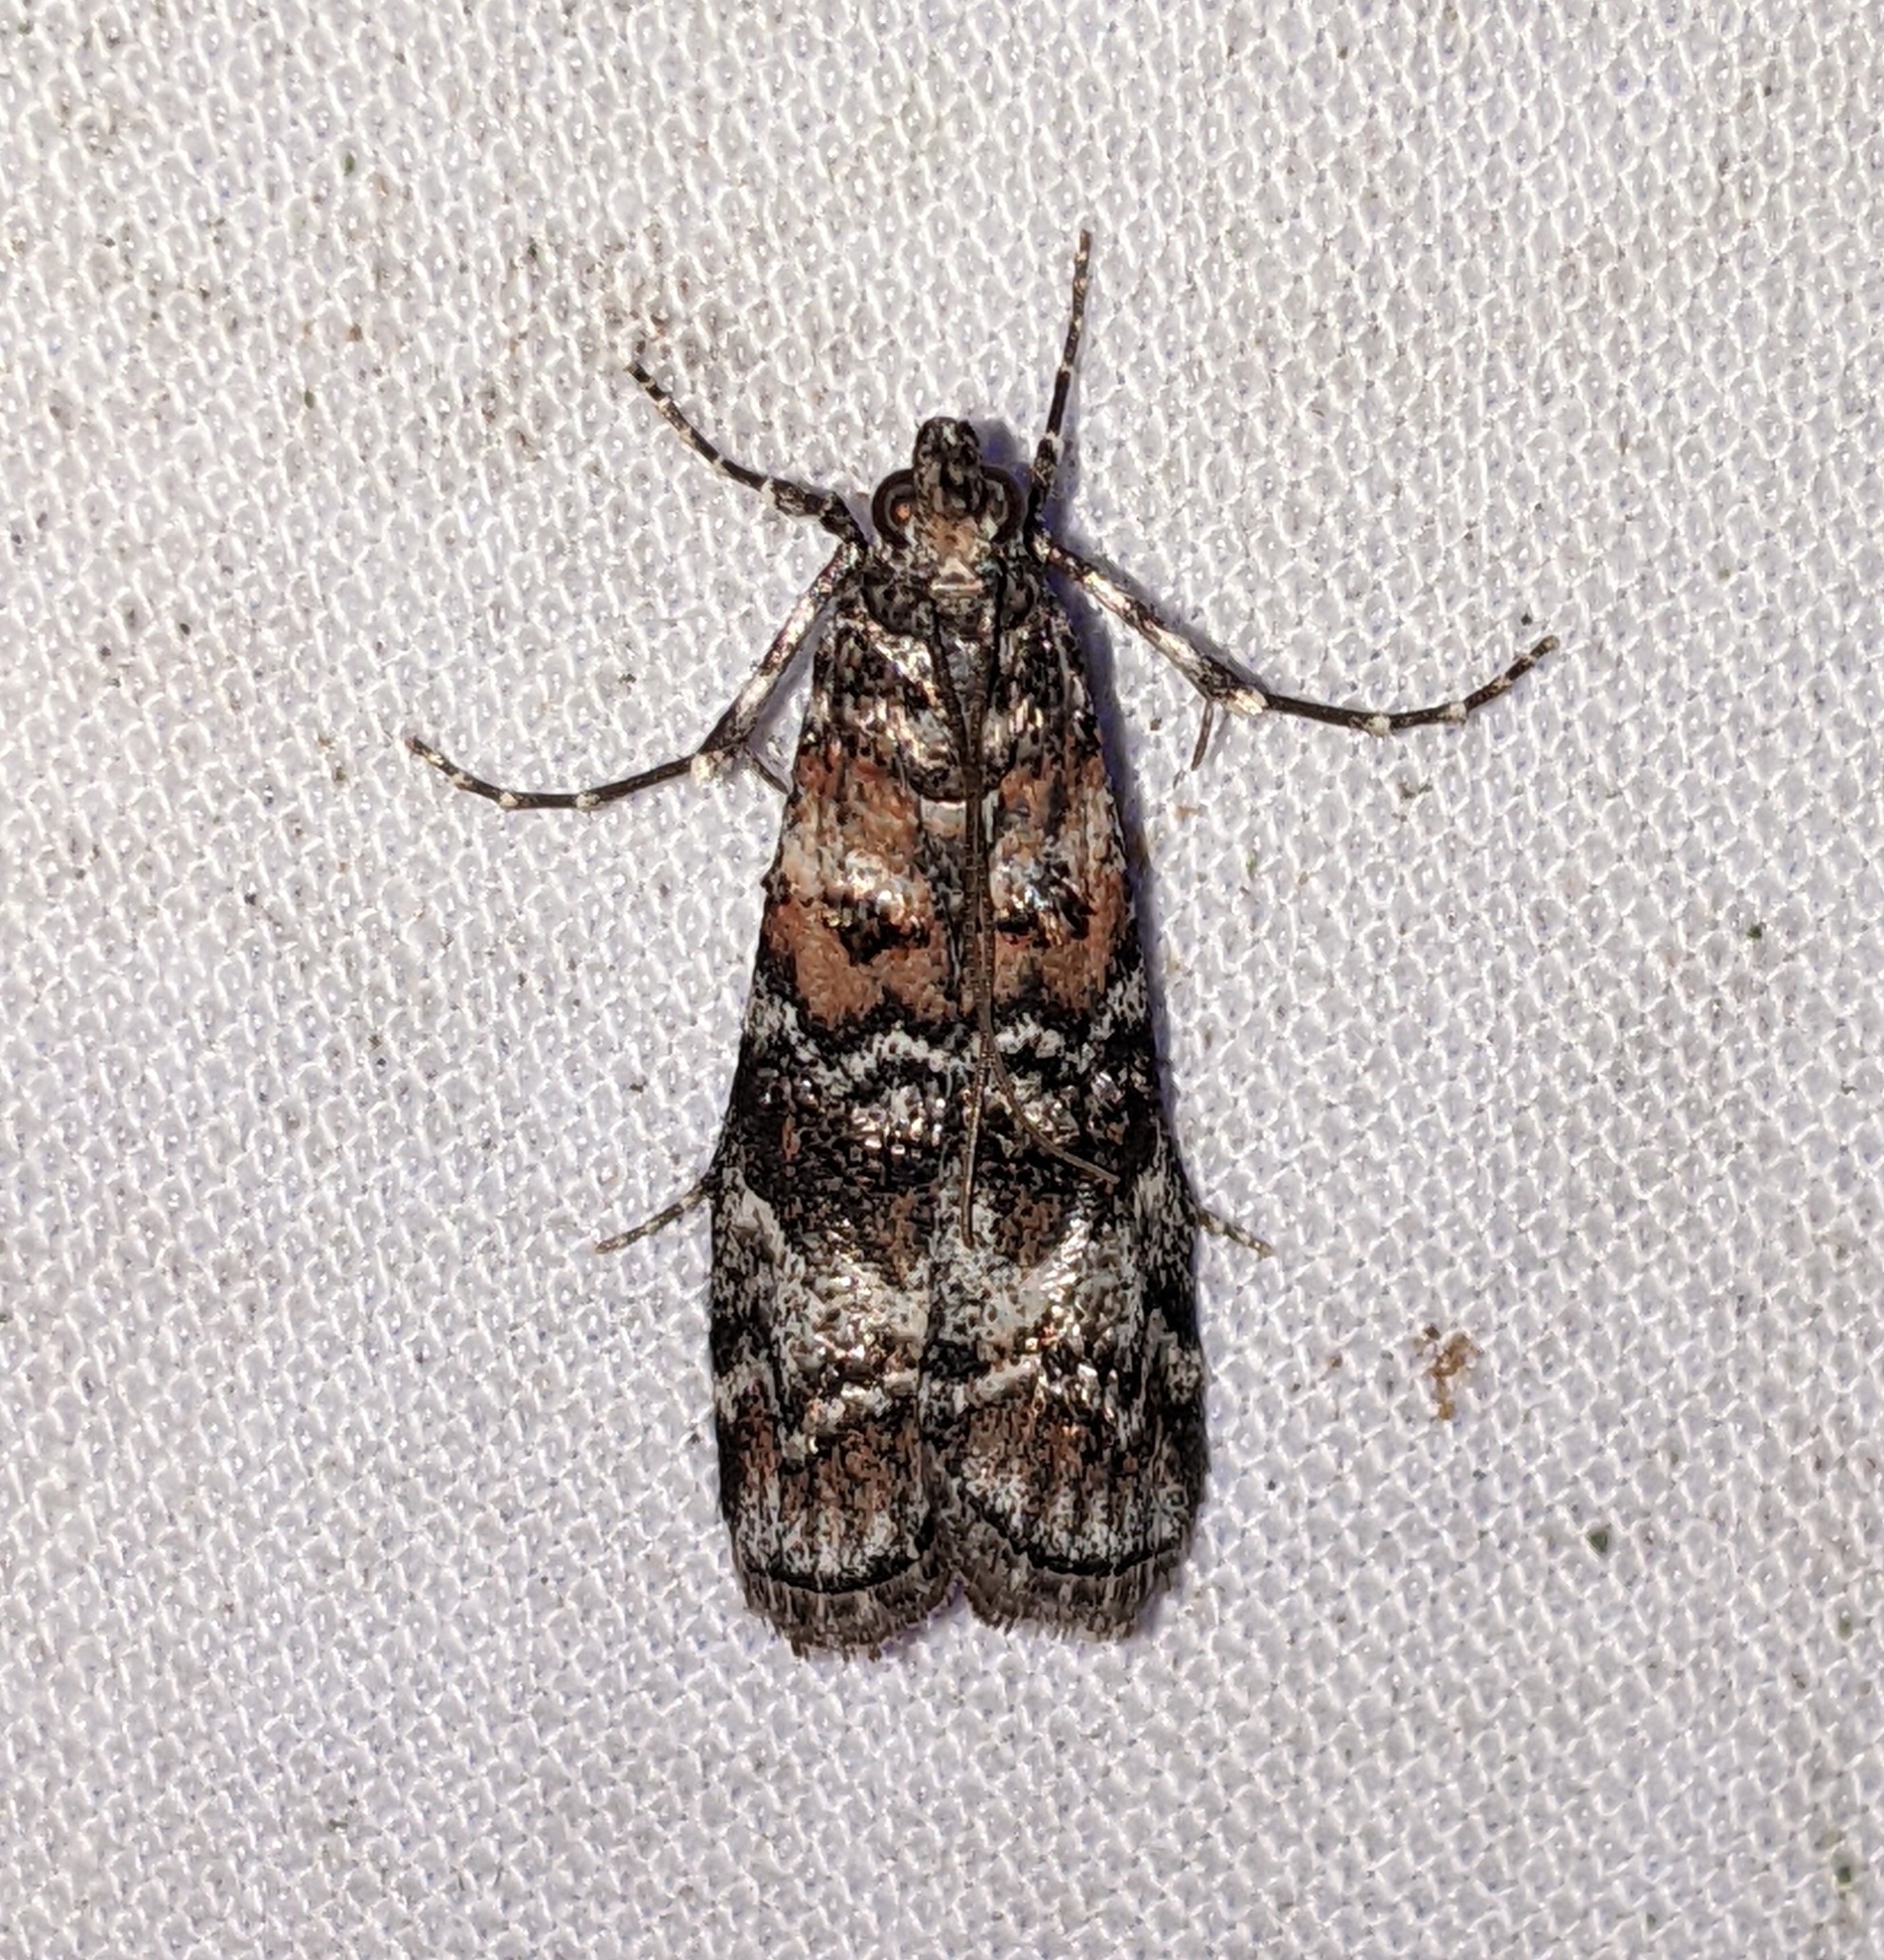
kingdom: Animalia
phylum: Arthropoda
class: Insecta
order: Lepidoptera
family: Pyralidae
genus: Dioryctria
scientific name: Dioryctria banksiella
